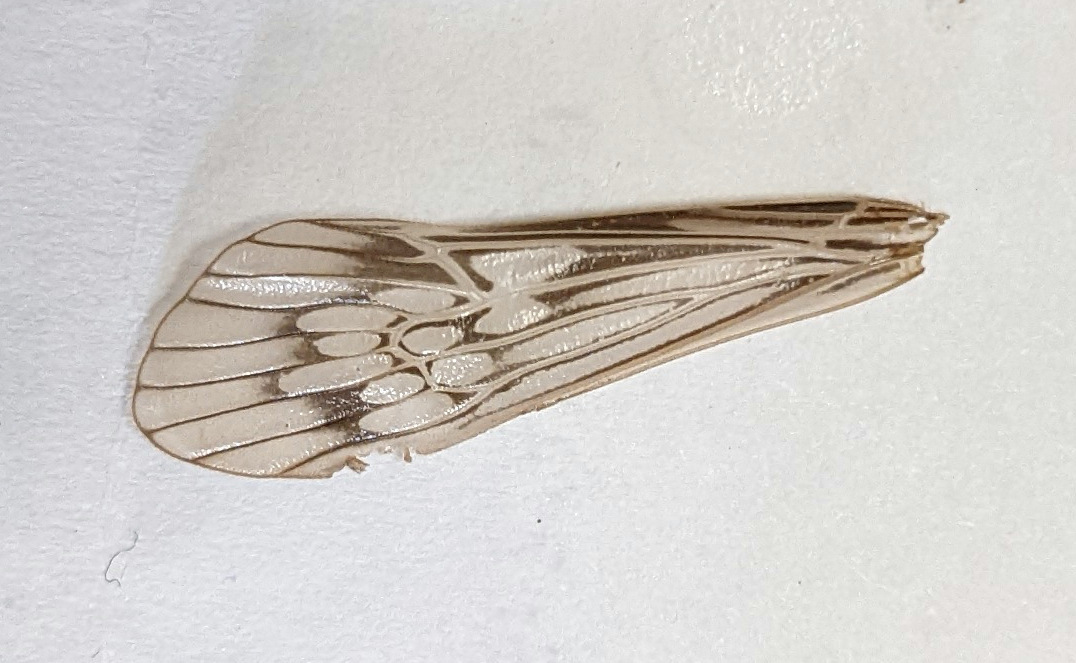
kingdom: Animalia
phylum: Arthropoda
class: Insecta
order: Trichoptera
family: Limnephilidae
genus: Hydatophylax
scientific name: Hydatophylax argus
